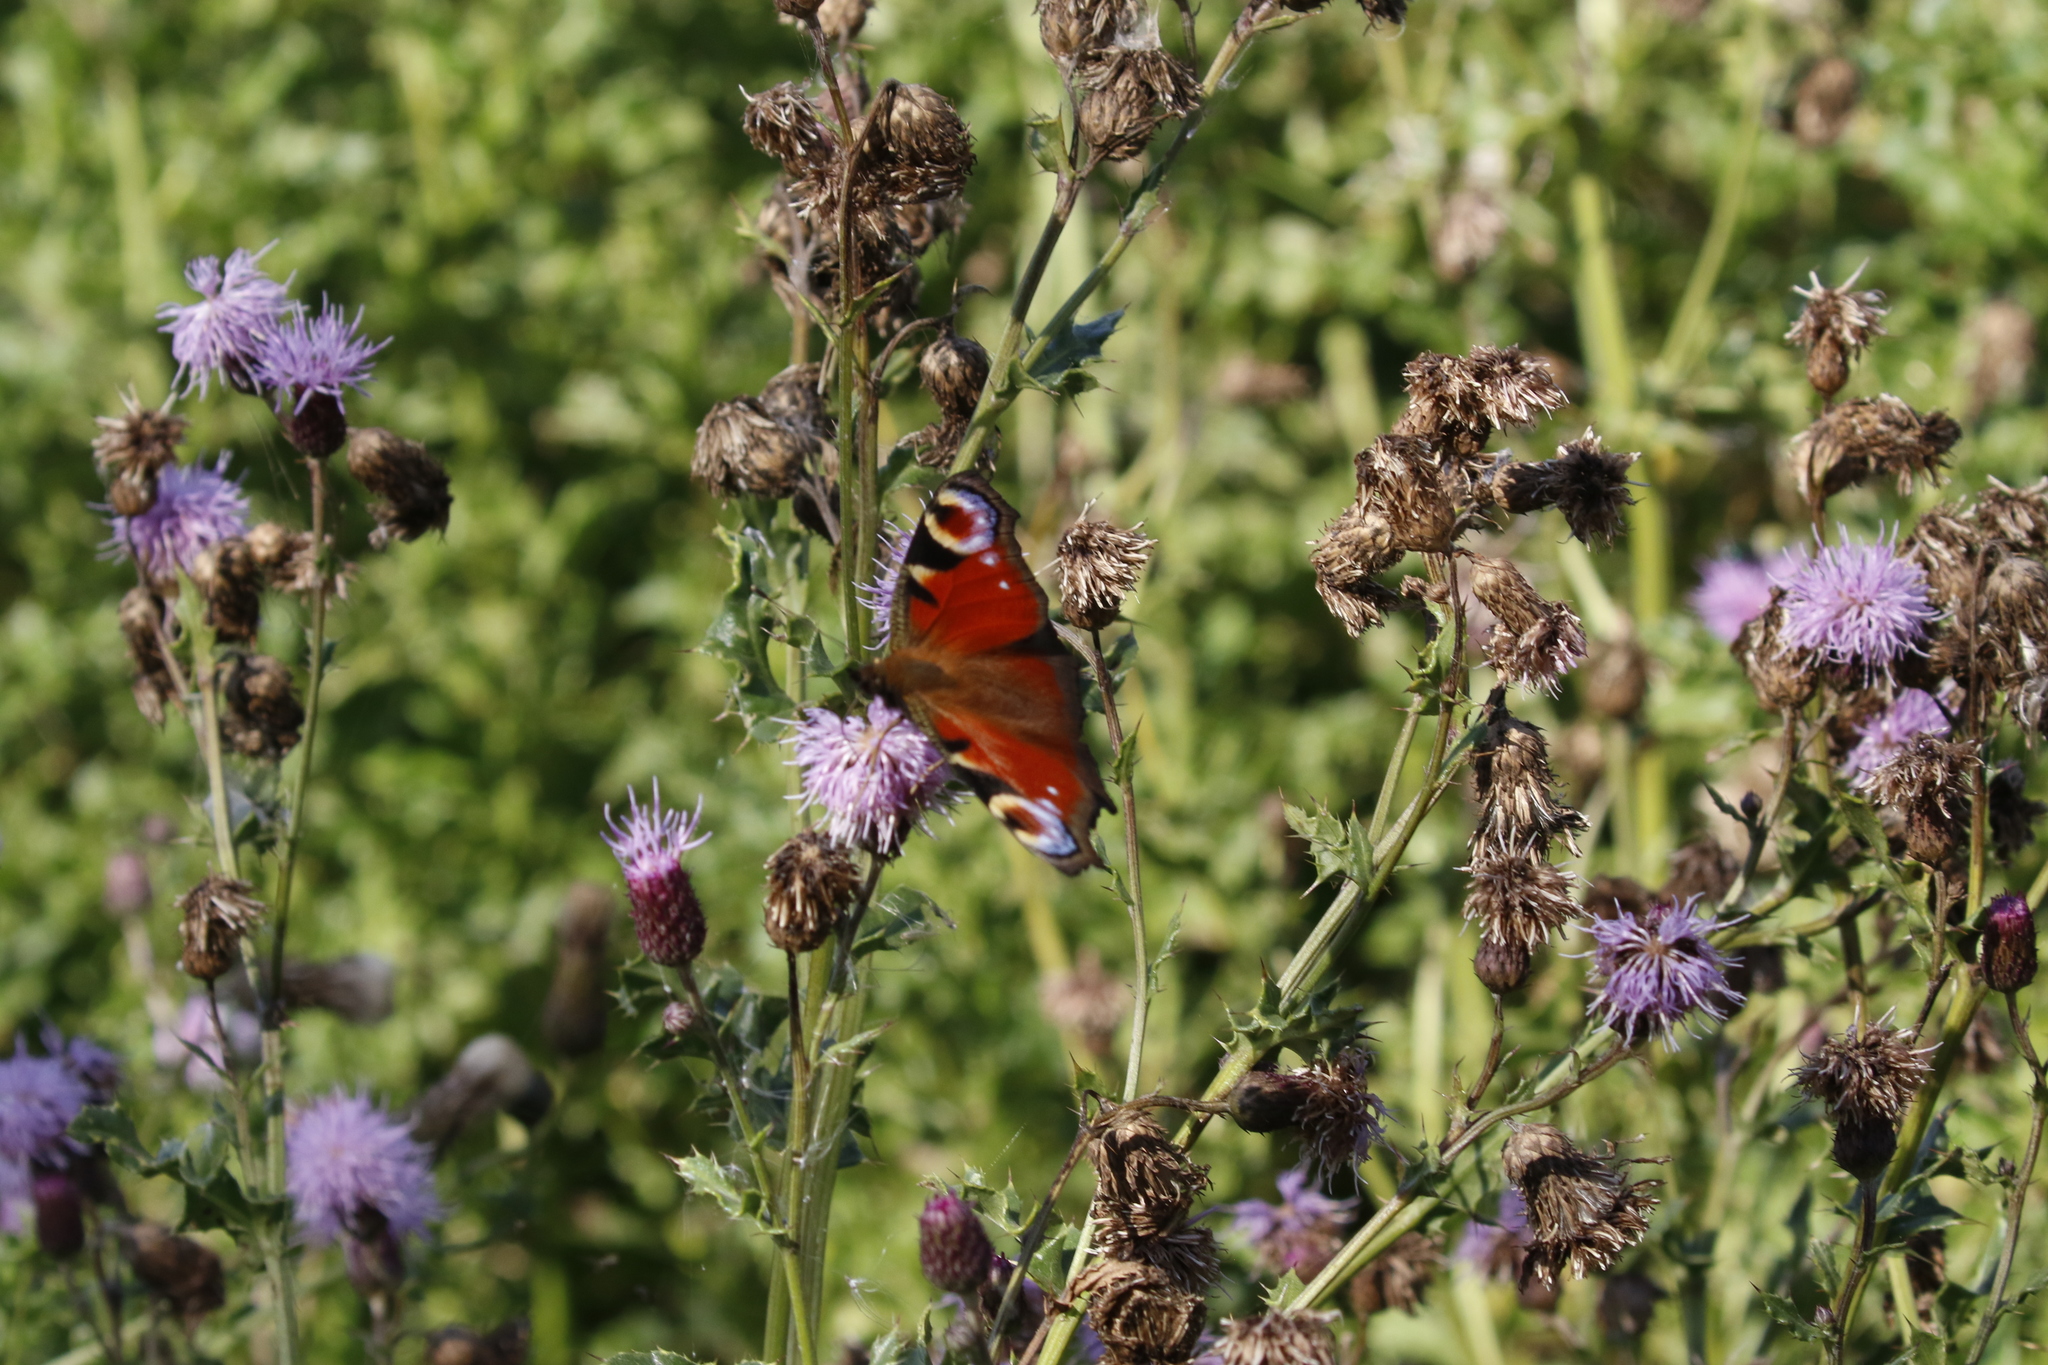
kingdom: Animalia
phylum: Arthropoda
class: Insecta
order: Lepidoptera
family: Nymphalidae
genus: Aglais
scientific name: Aglais io
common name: Peacock
